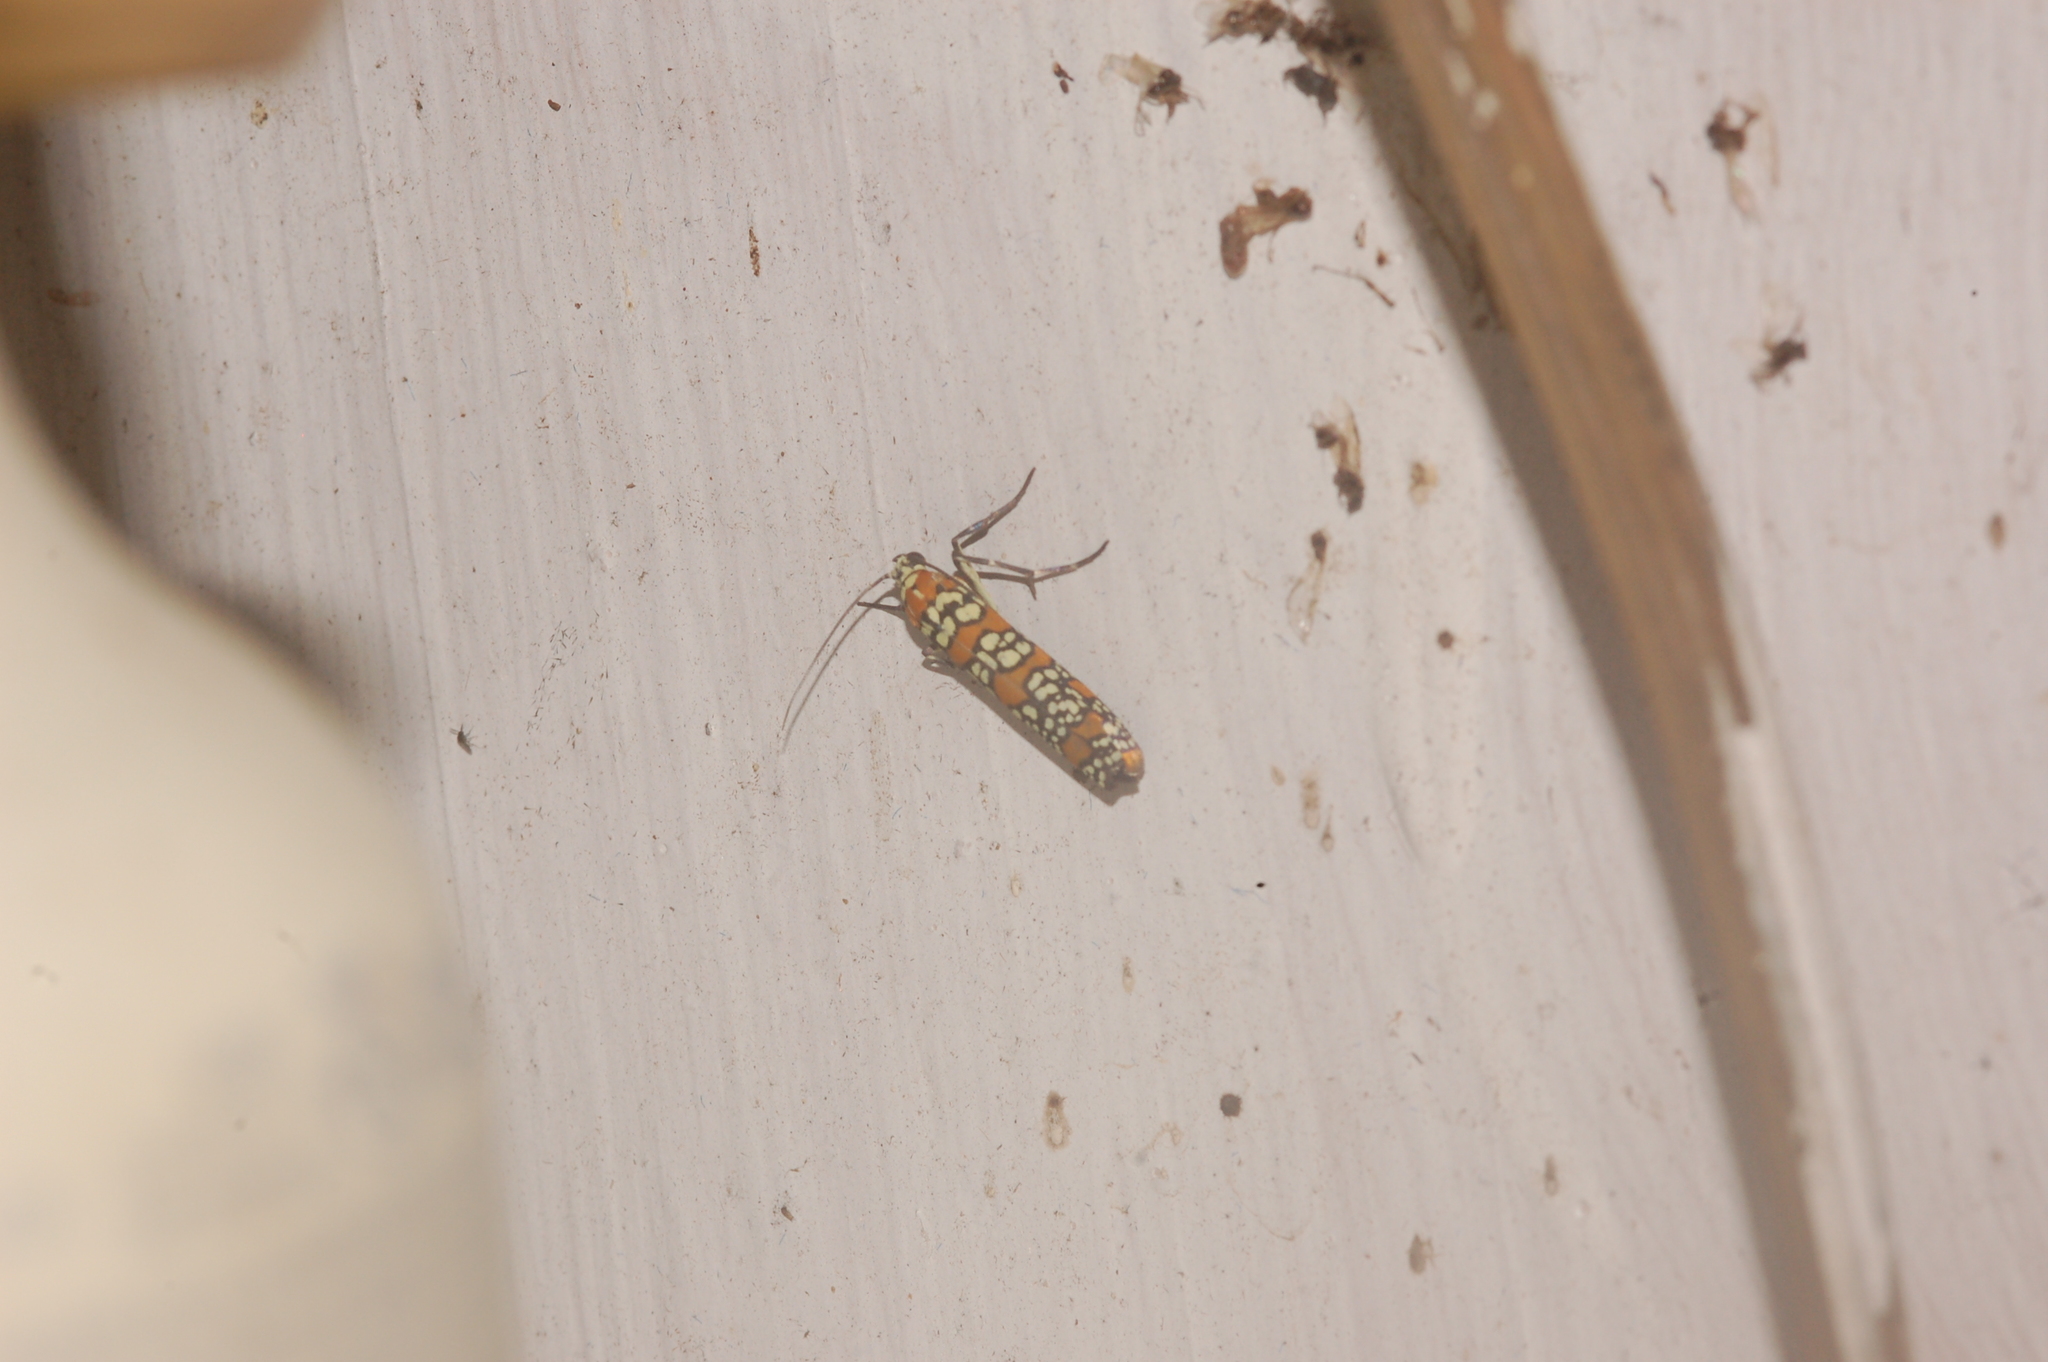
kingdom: Animalia
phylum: Arthropoda
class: Insecta
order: Lepidoptera
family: Attevidae
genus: Atteva
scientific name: Atteva punctella
